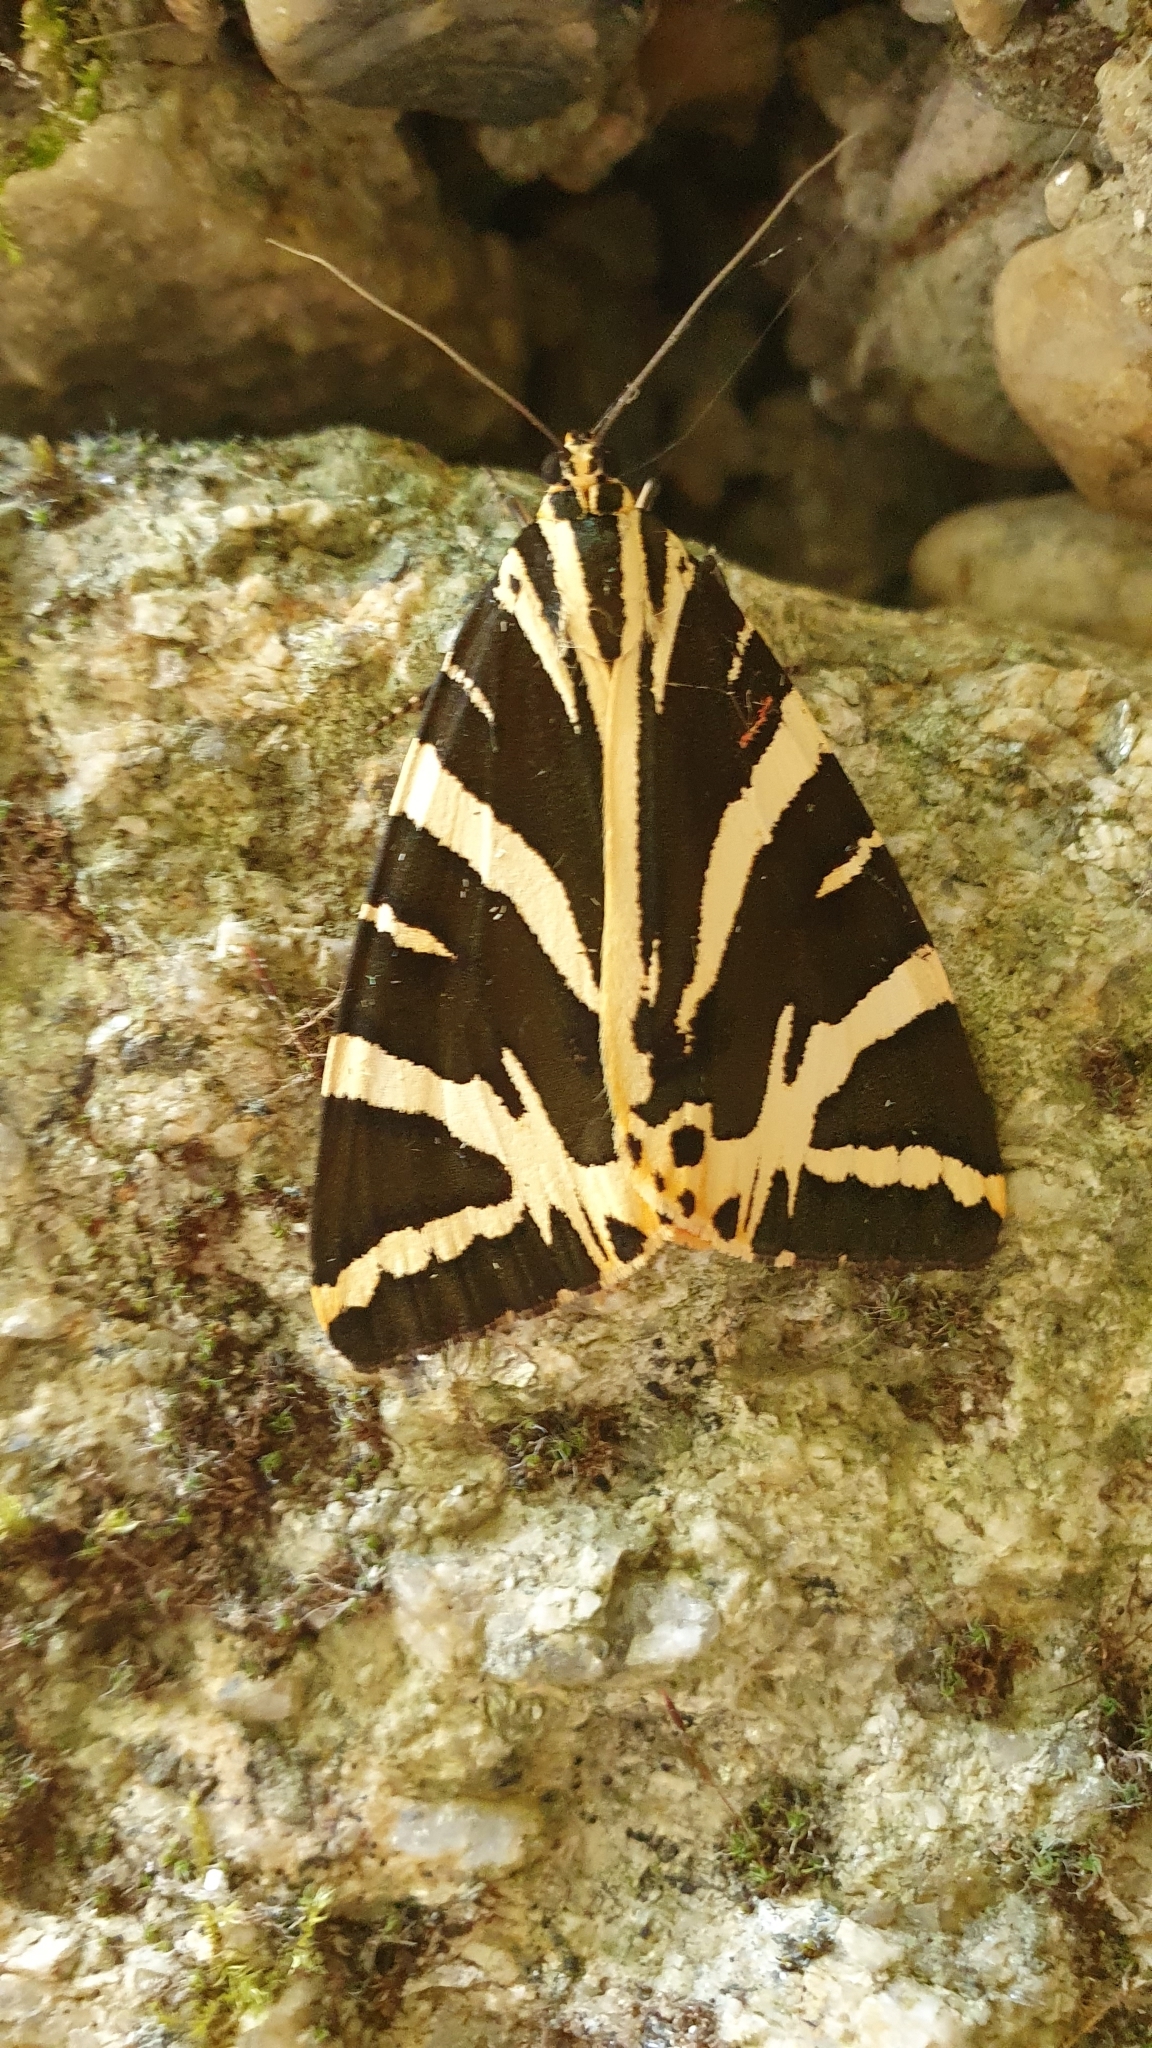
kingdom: Animalia
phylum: Arthropoda
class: Insecta
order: Lepidoptera
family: Erebidae
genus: Euplagia
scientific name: Euplagia quadripunctaria
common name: Jersey tiger
